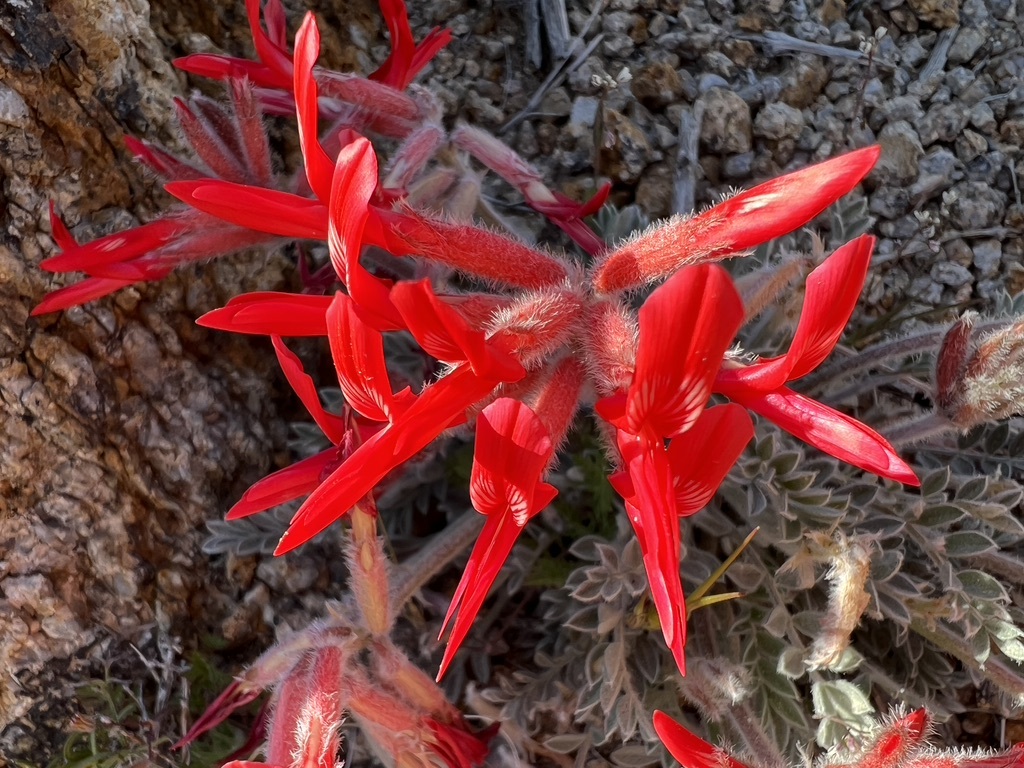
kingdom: Plantae
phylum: Tracheophyta
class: Magnoliopsida
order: Fabales
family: Fabaceae
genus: Astragalus
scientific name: Astragalus coccineus
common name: Scarlet milk-vetch
